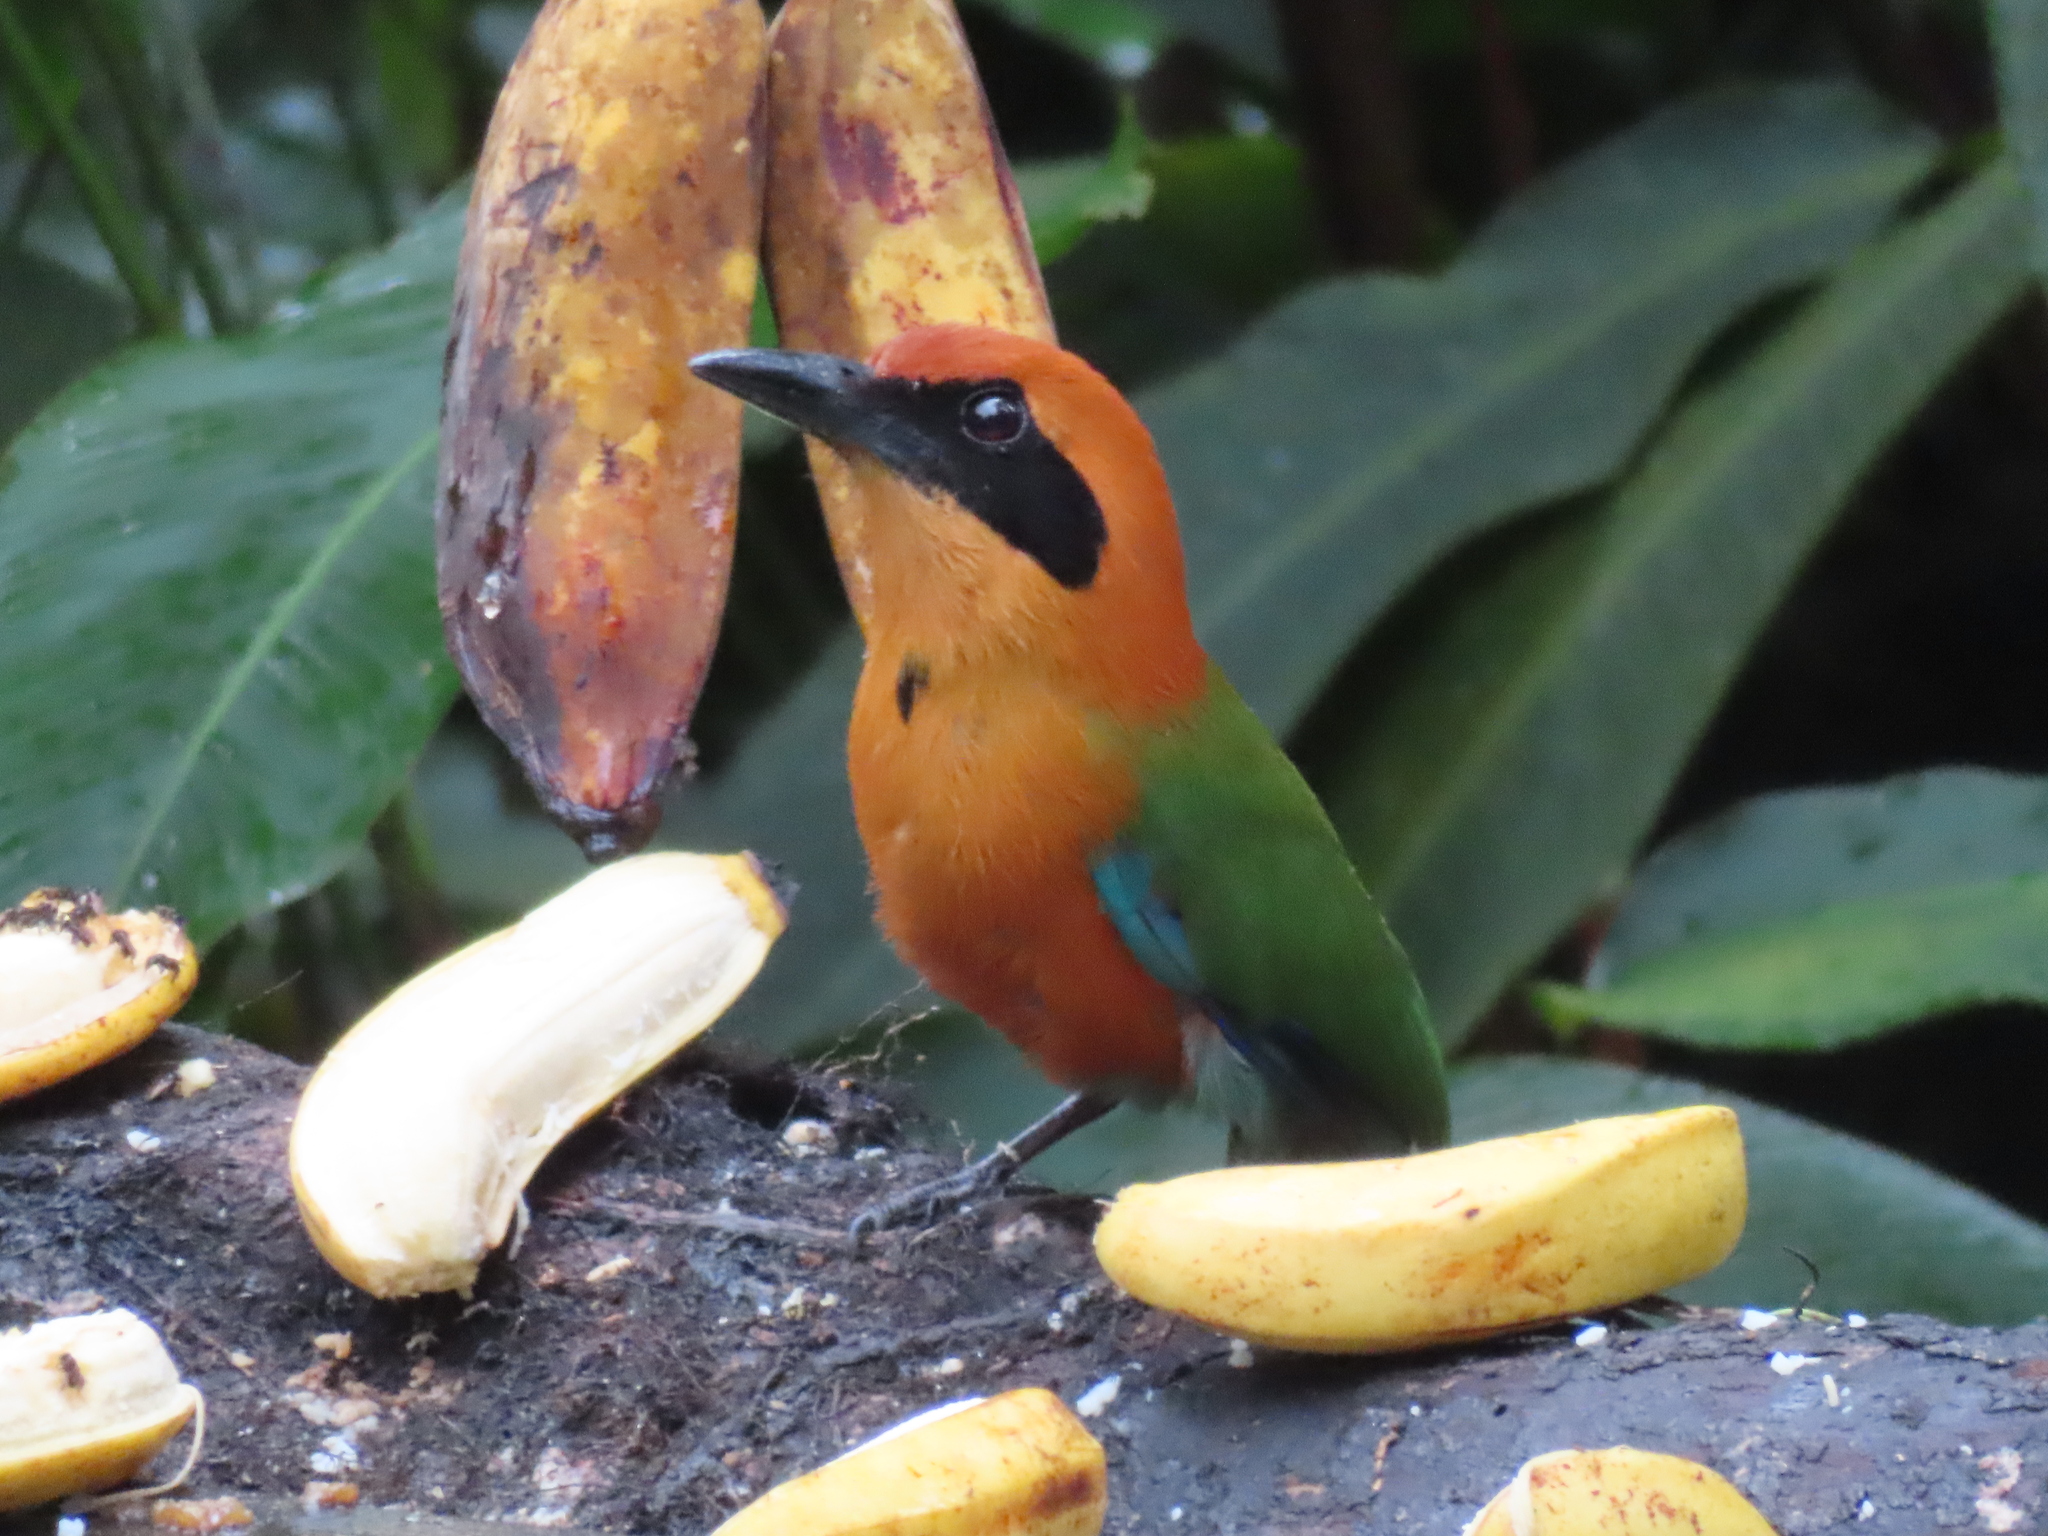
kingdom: Animalia
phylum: Chordata
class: Aves
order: Coraciiformes
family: Momotidae
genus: Baryphthengus
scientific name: Baryphthengus martii
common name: Rufous motmot
